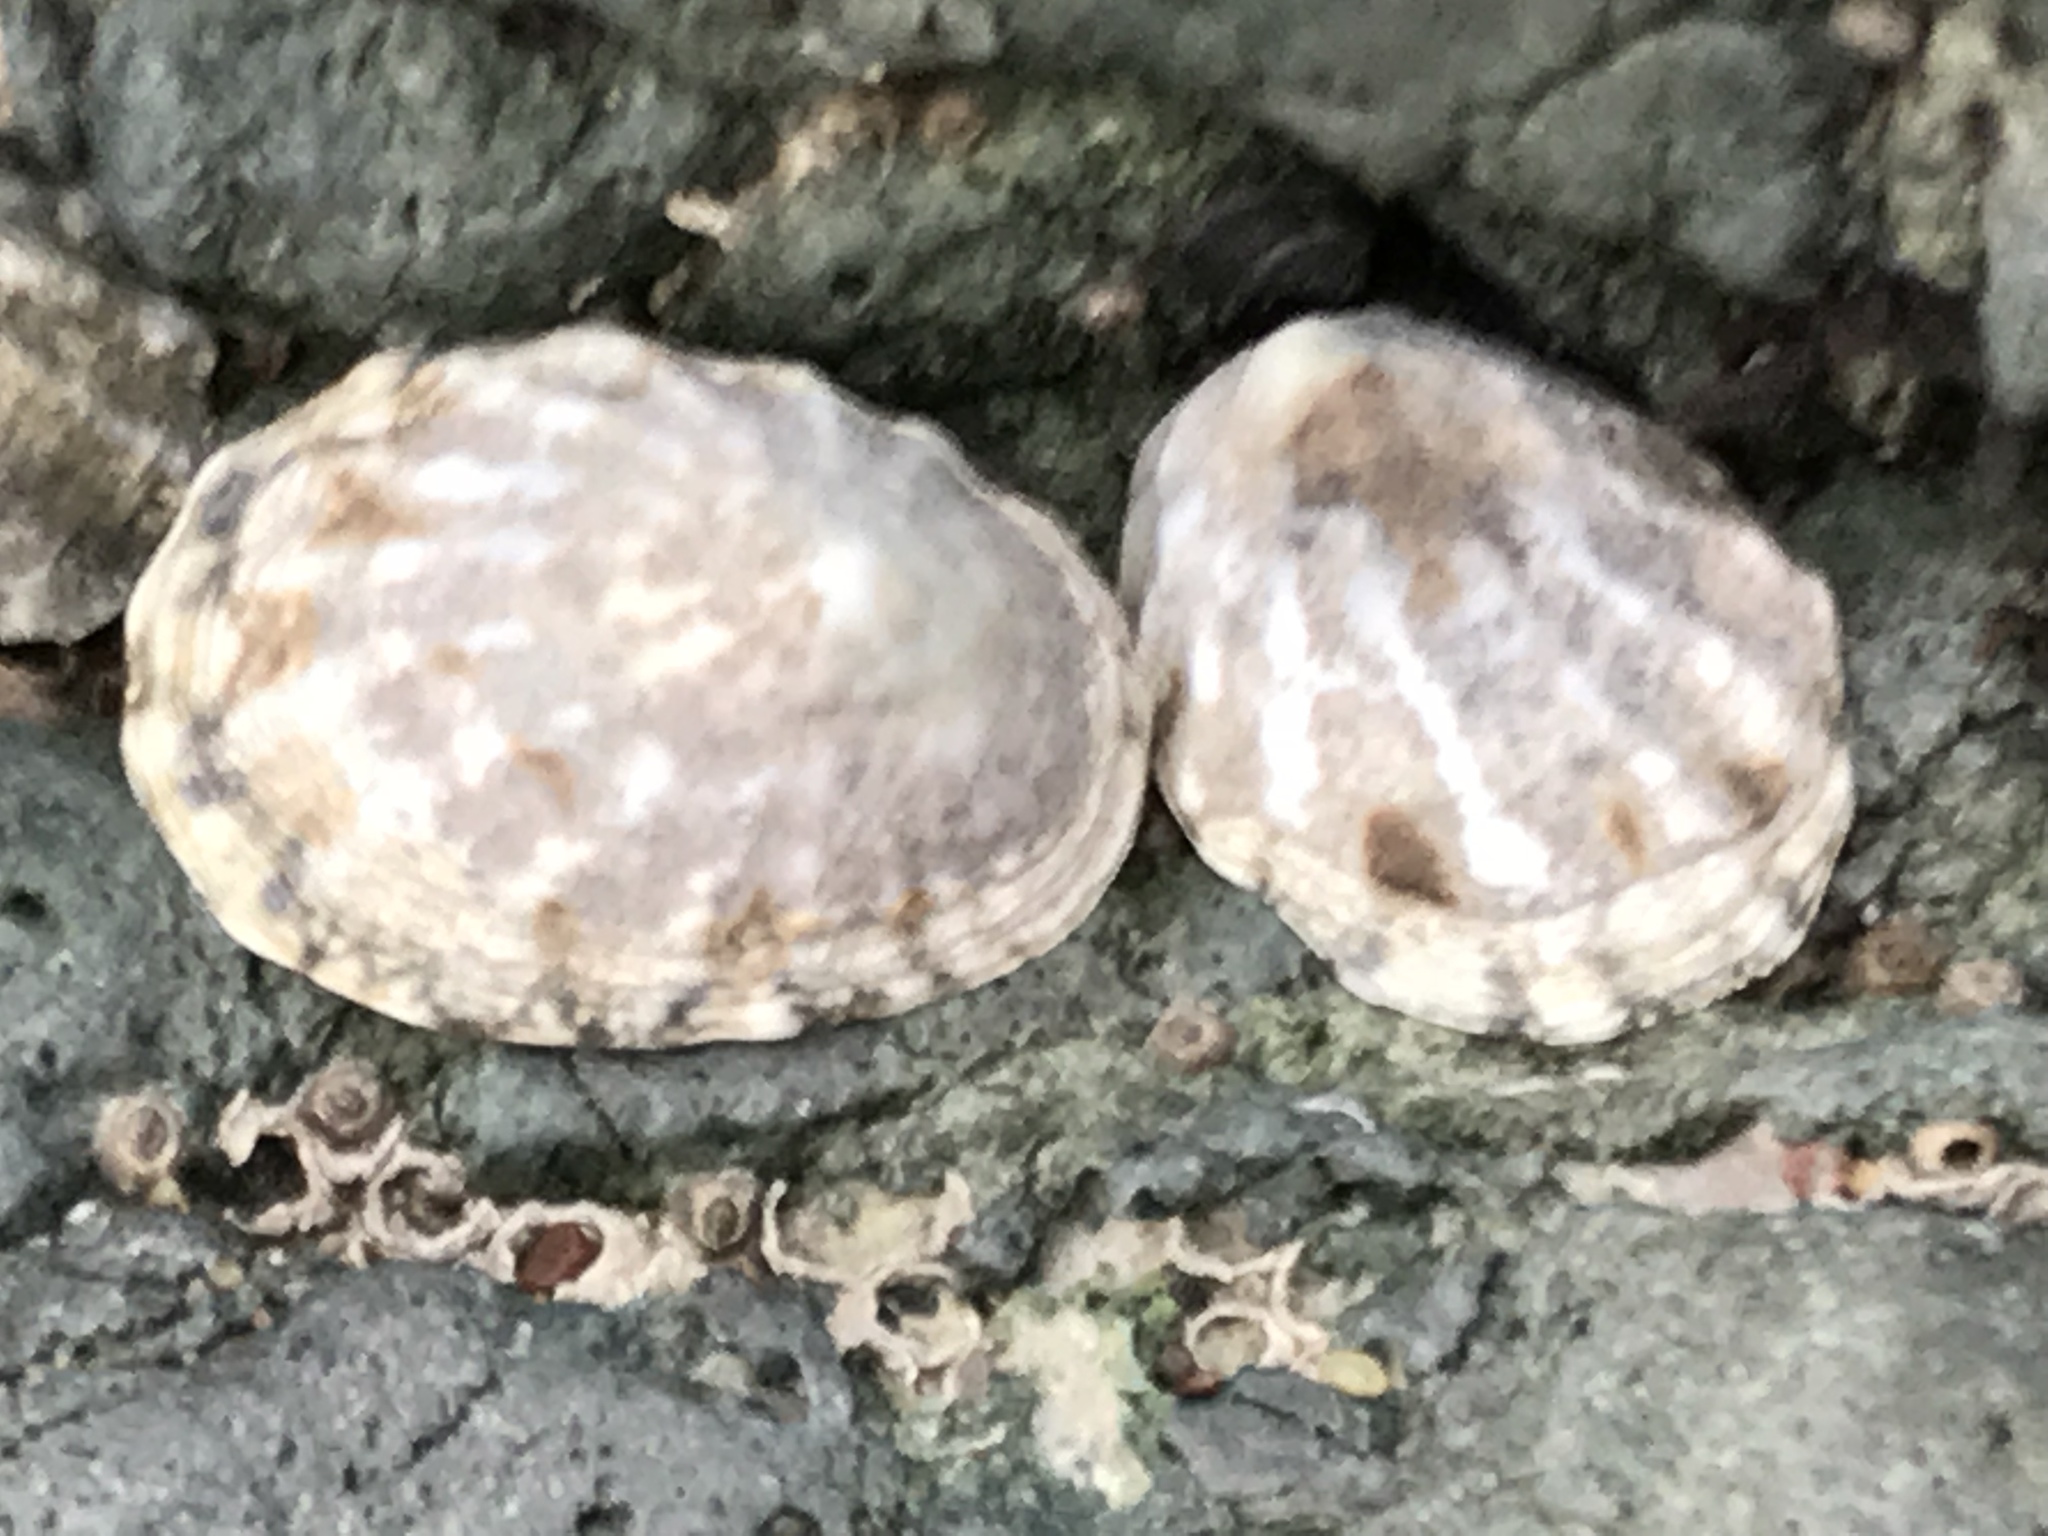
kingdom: Animalia
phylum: Mollusca
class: Gastropoda
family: Lottiidae
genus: Lottia
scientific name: Lottia digitalis
